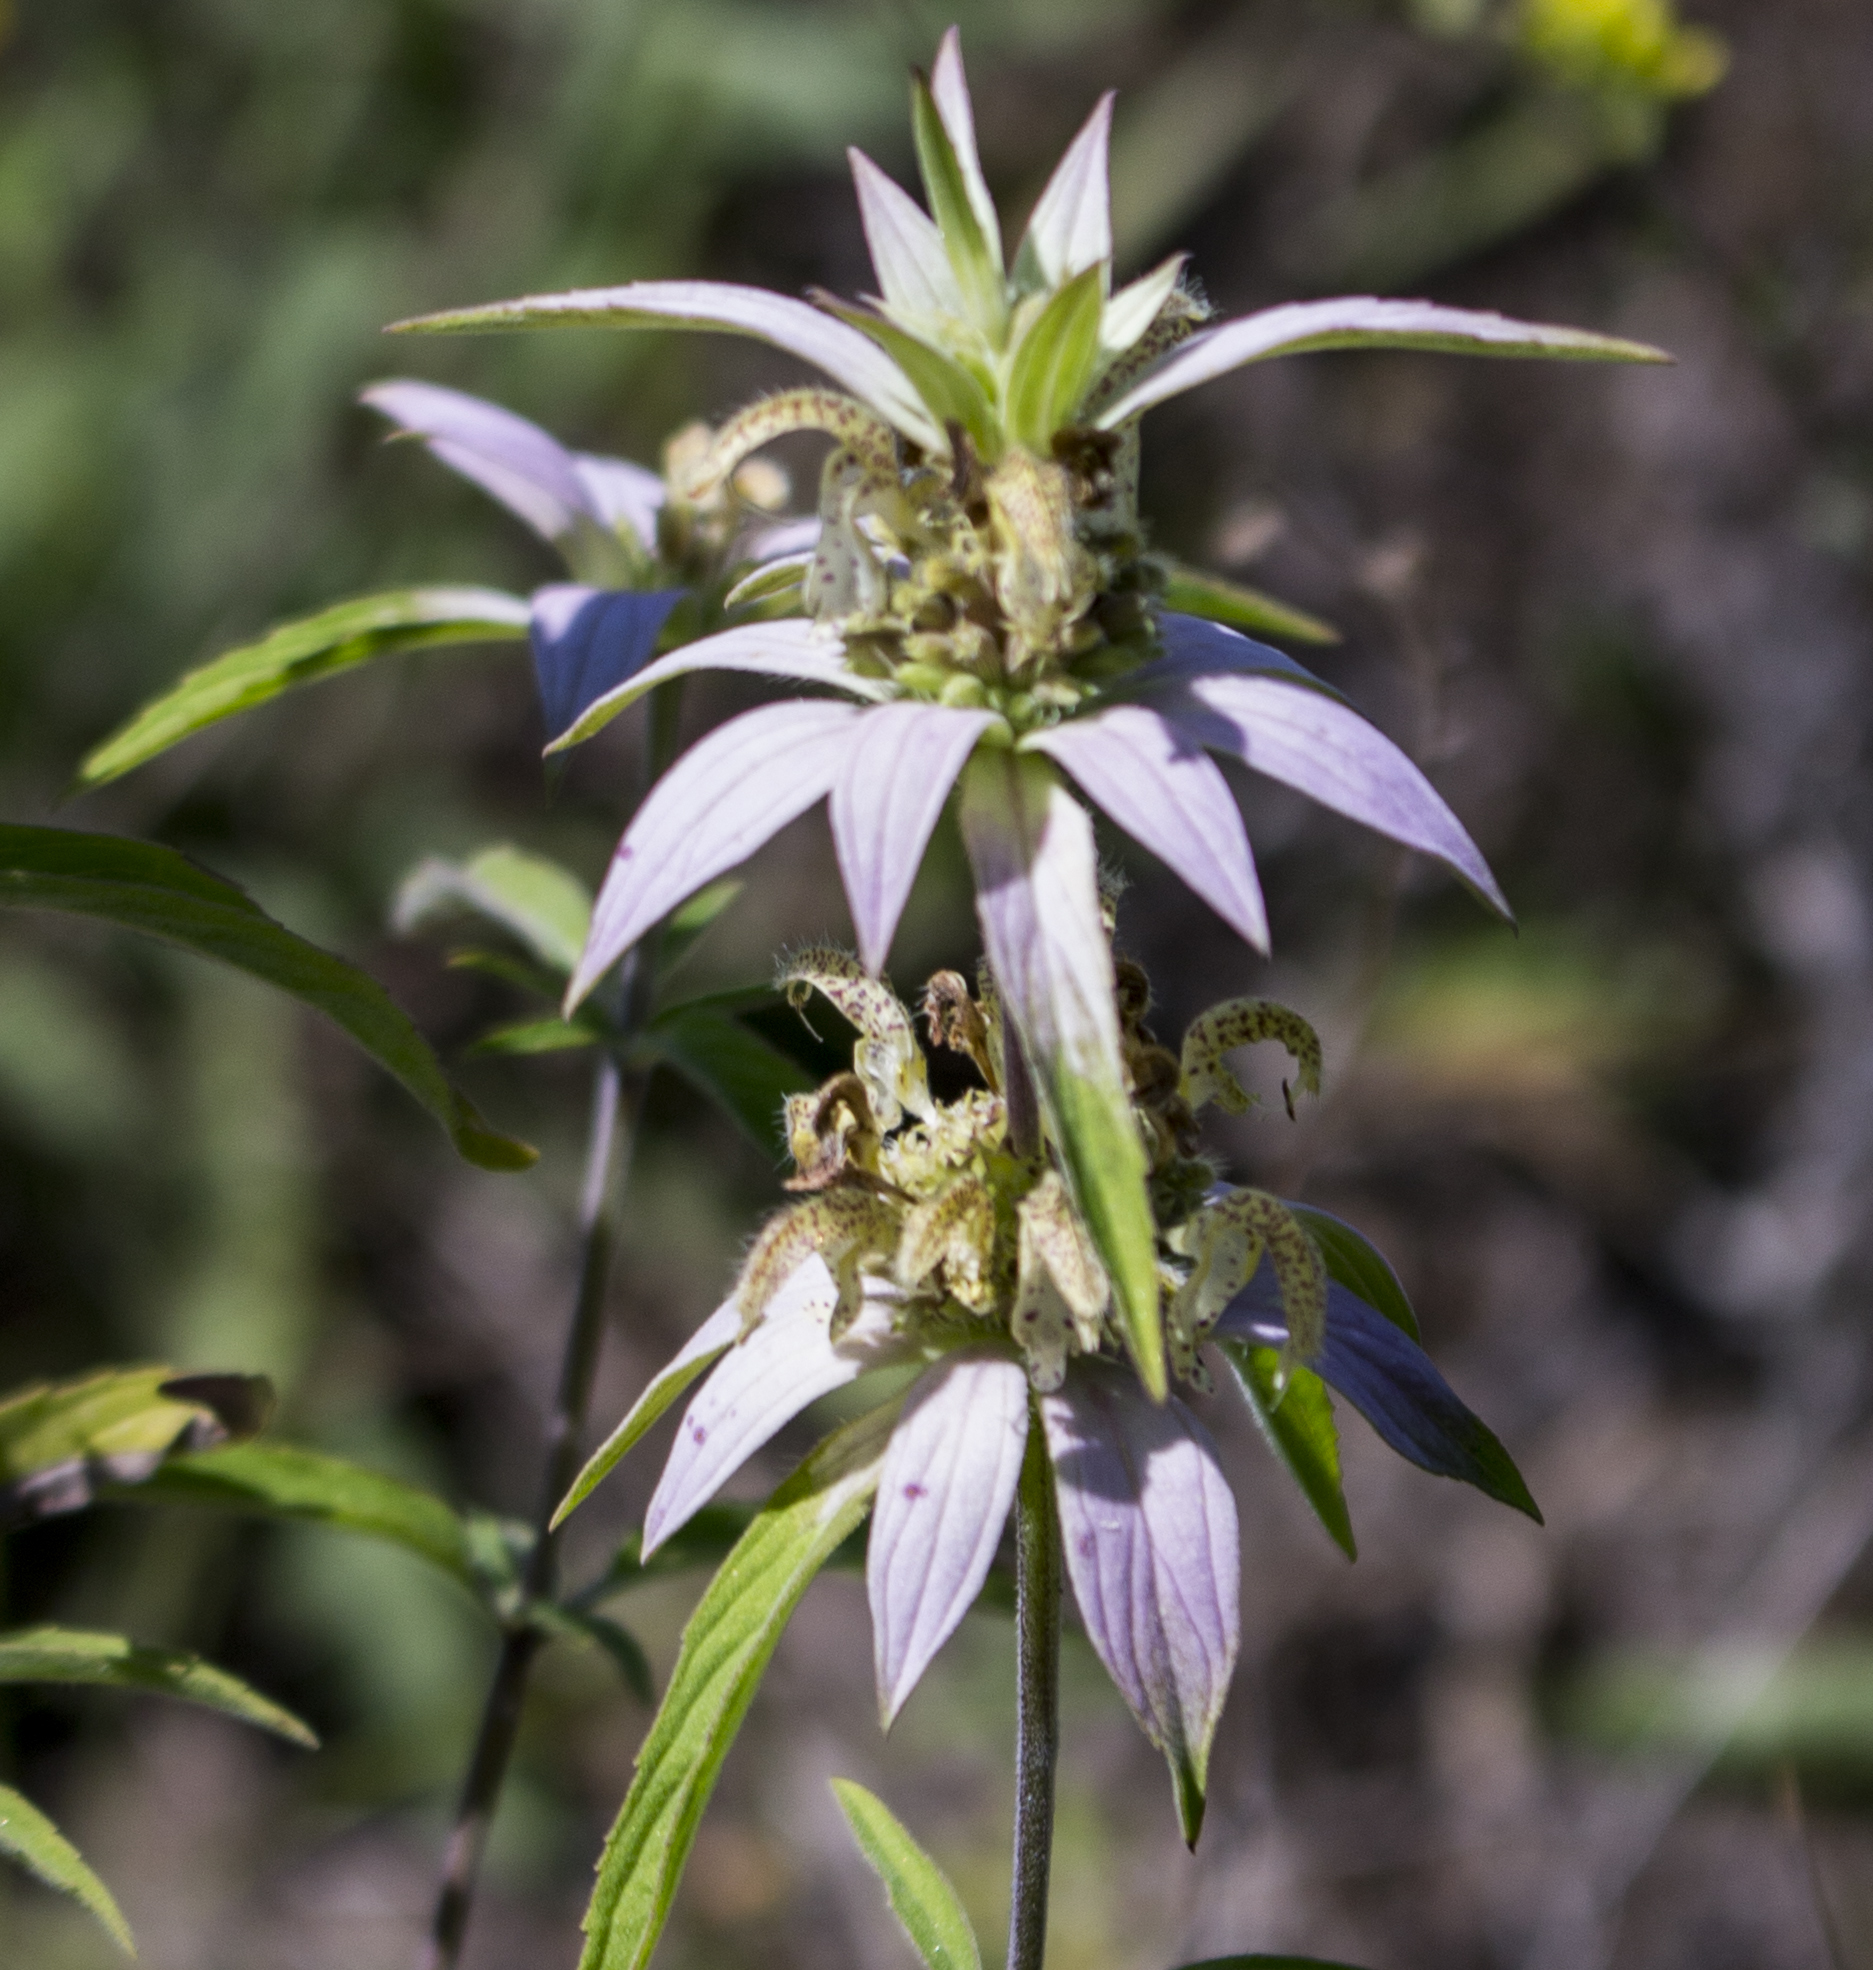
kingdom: Plantae
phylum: Tracheophyta
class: Magnoliopsida
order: Lamiales
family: Lamiaceae
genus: Monarda
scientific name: Monarda punctata
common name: Dotted monarda
